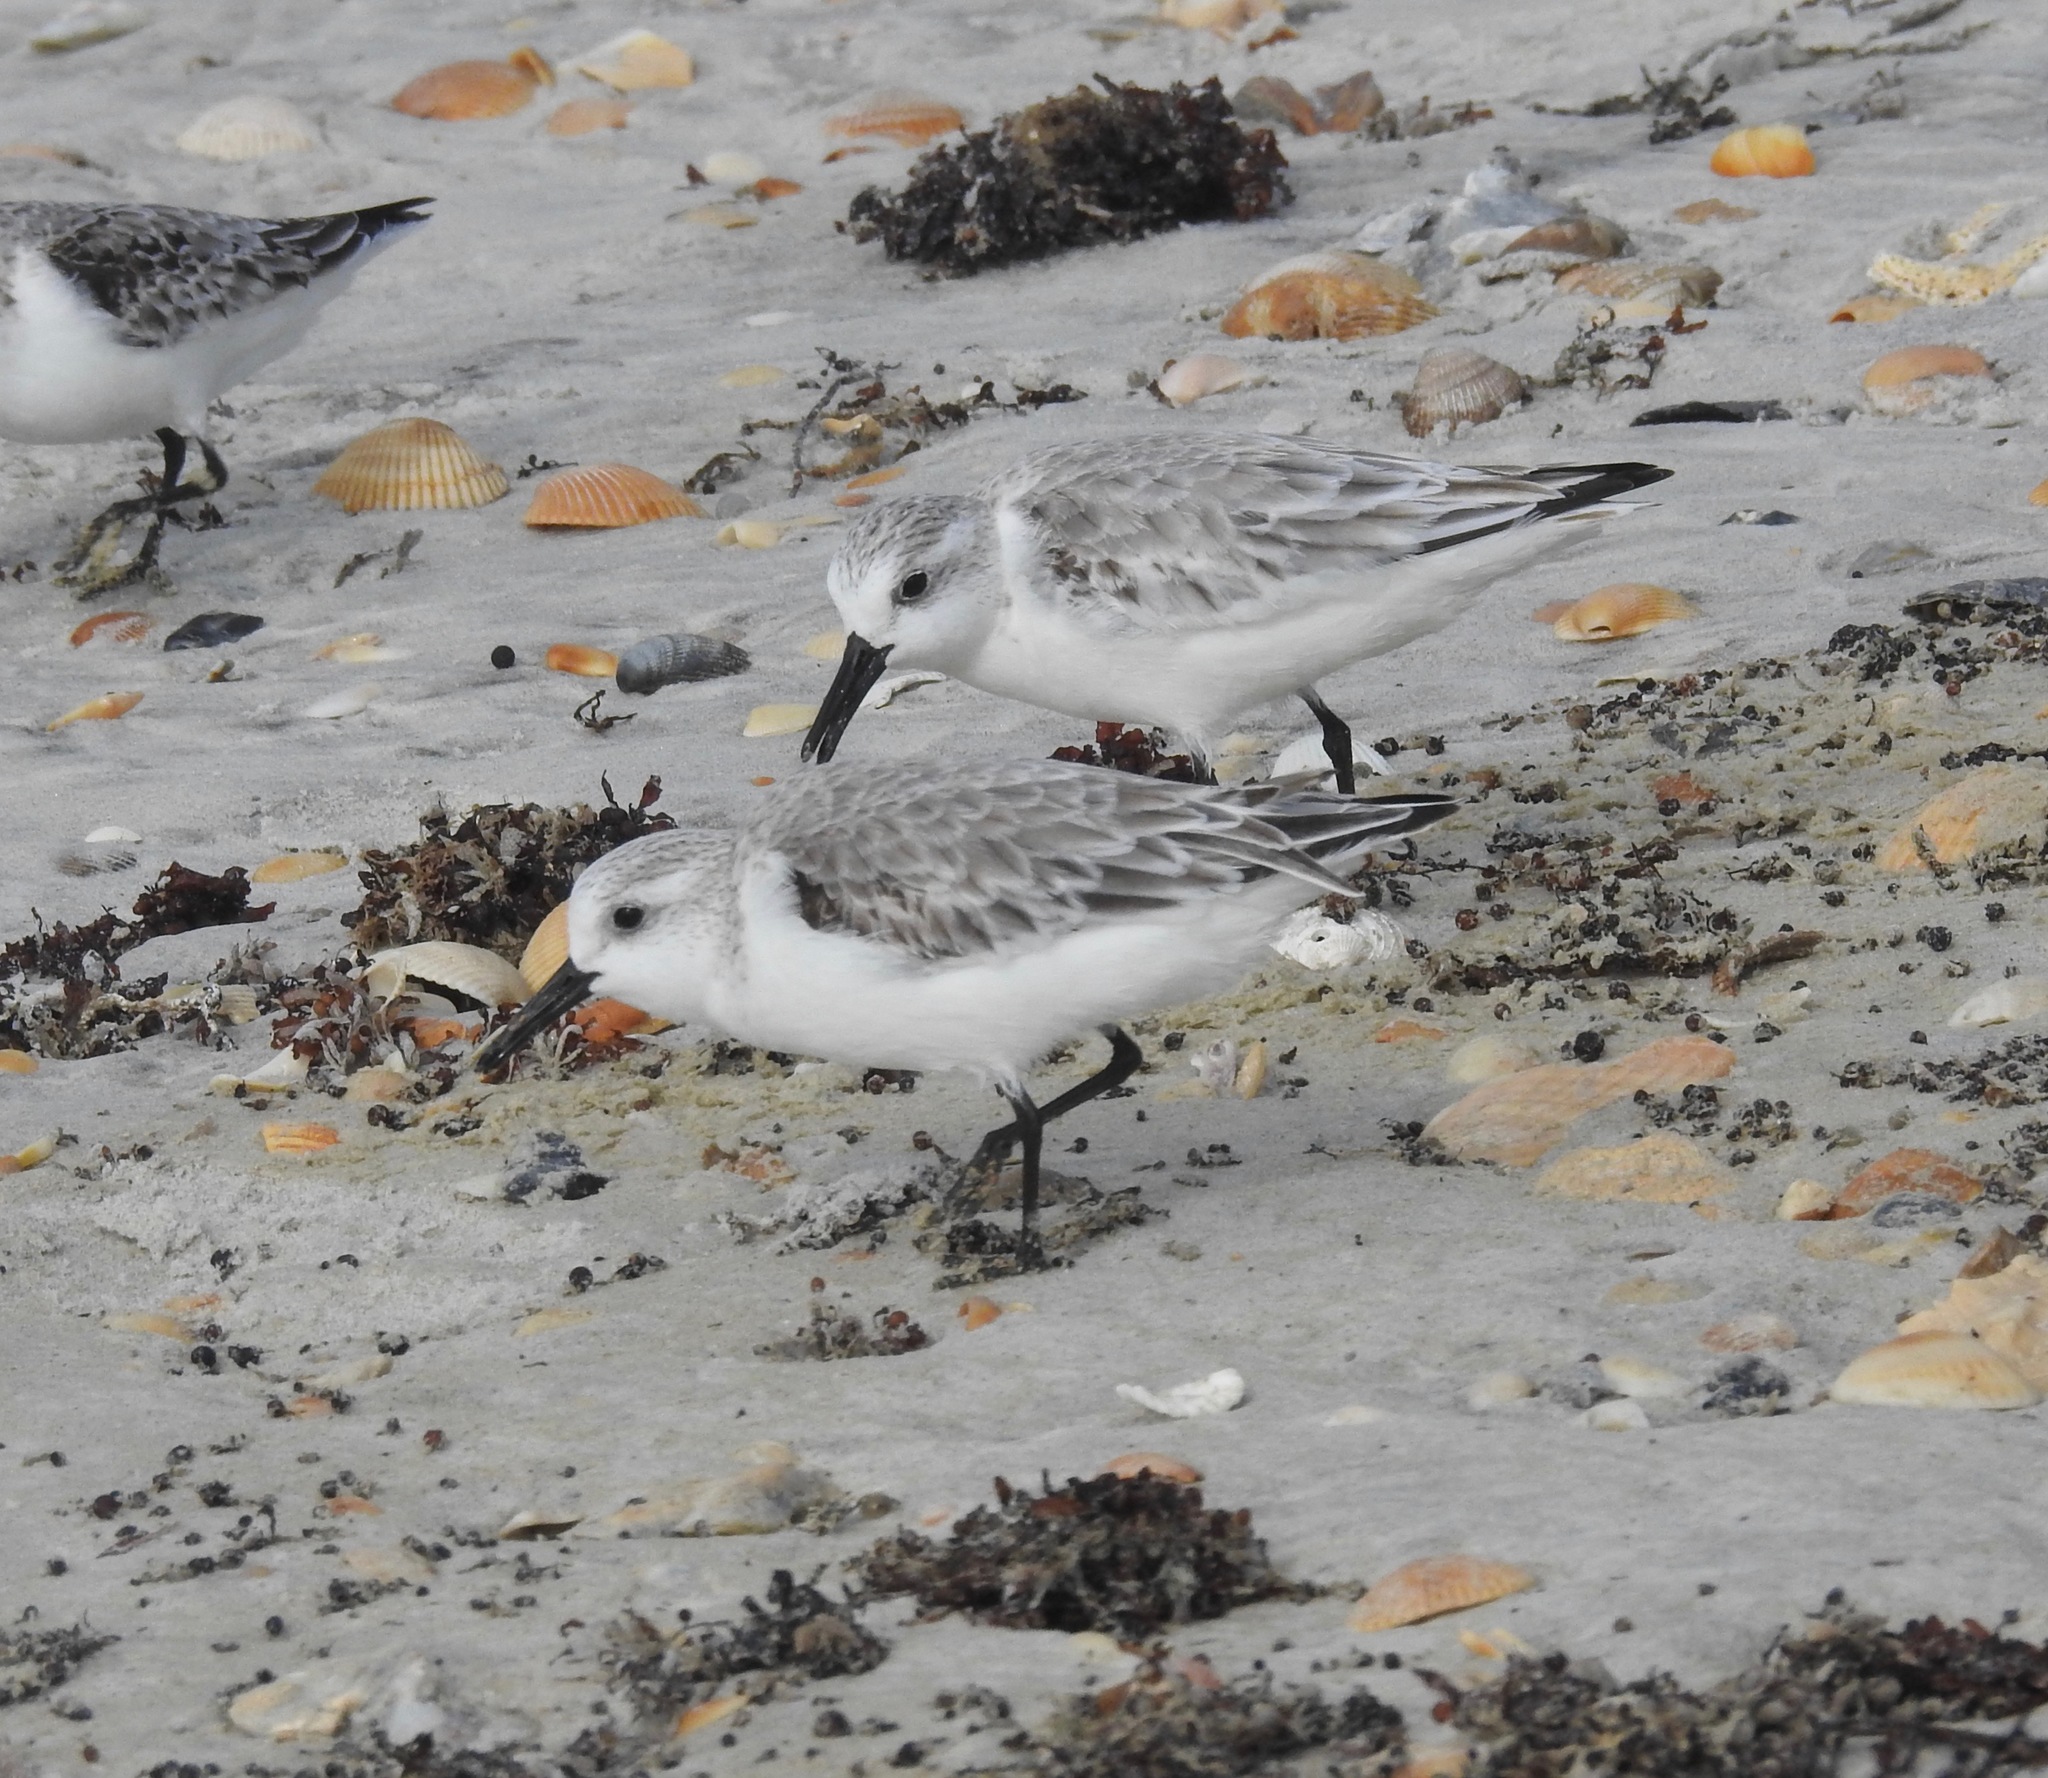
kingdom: Animalia
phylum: Chordata
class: Aves
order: Charadriiformes
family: Scolopacidae
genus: Calidris
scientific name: Calidris alba
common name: Sanderling
